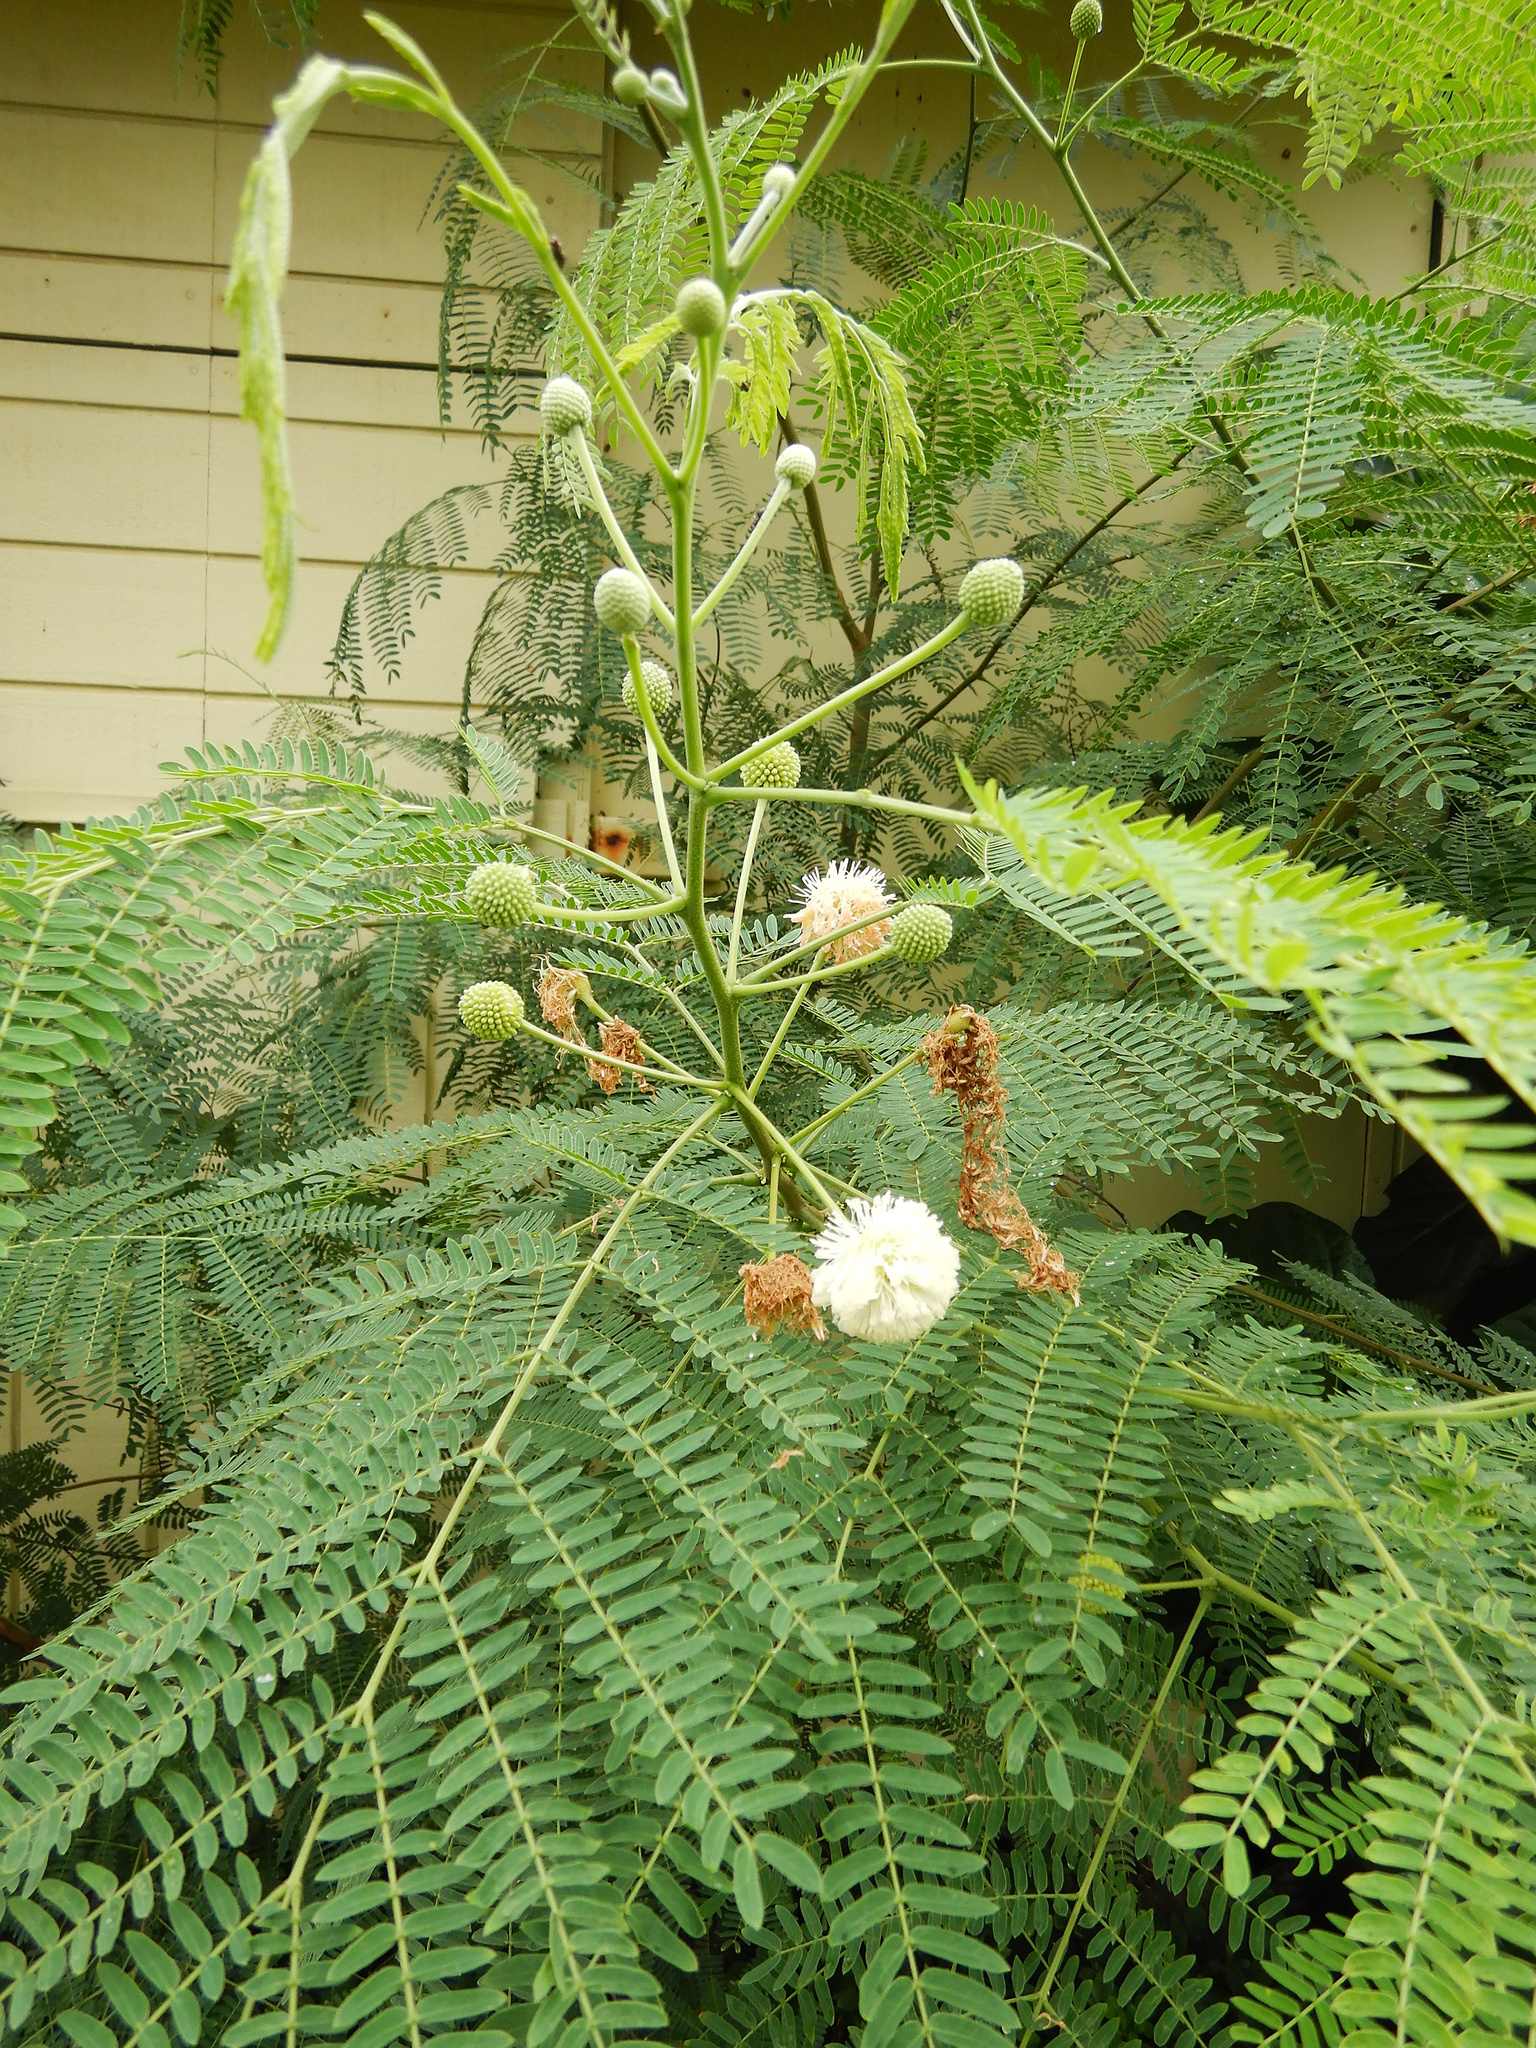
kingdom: Plantae
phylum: Tracheophyta
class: Magnoliopsida
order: Fabales
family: Fabaceae
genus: Leucaena
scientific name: Leucaena leucocephala
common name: White leadtree
